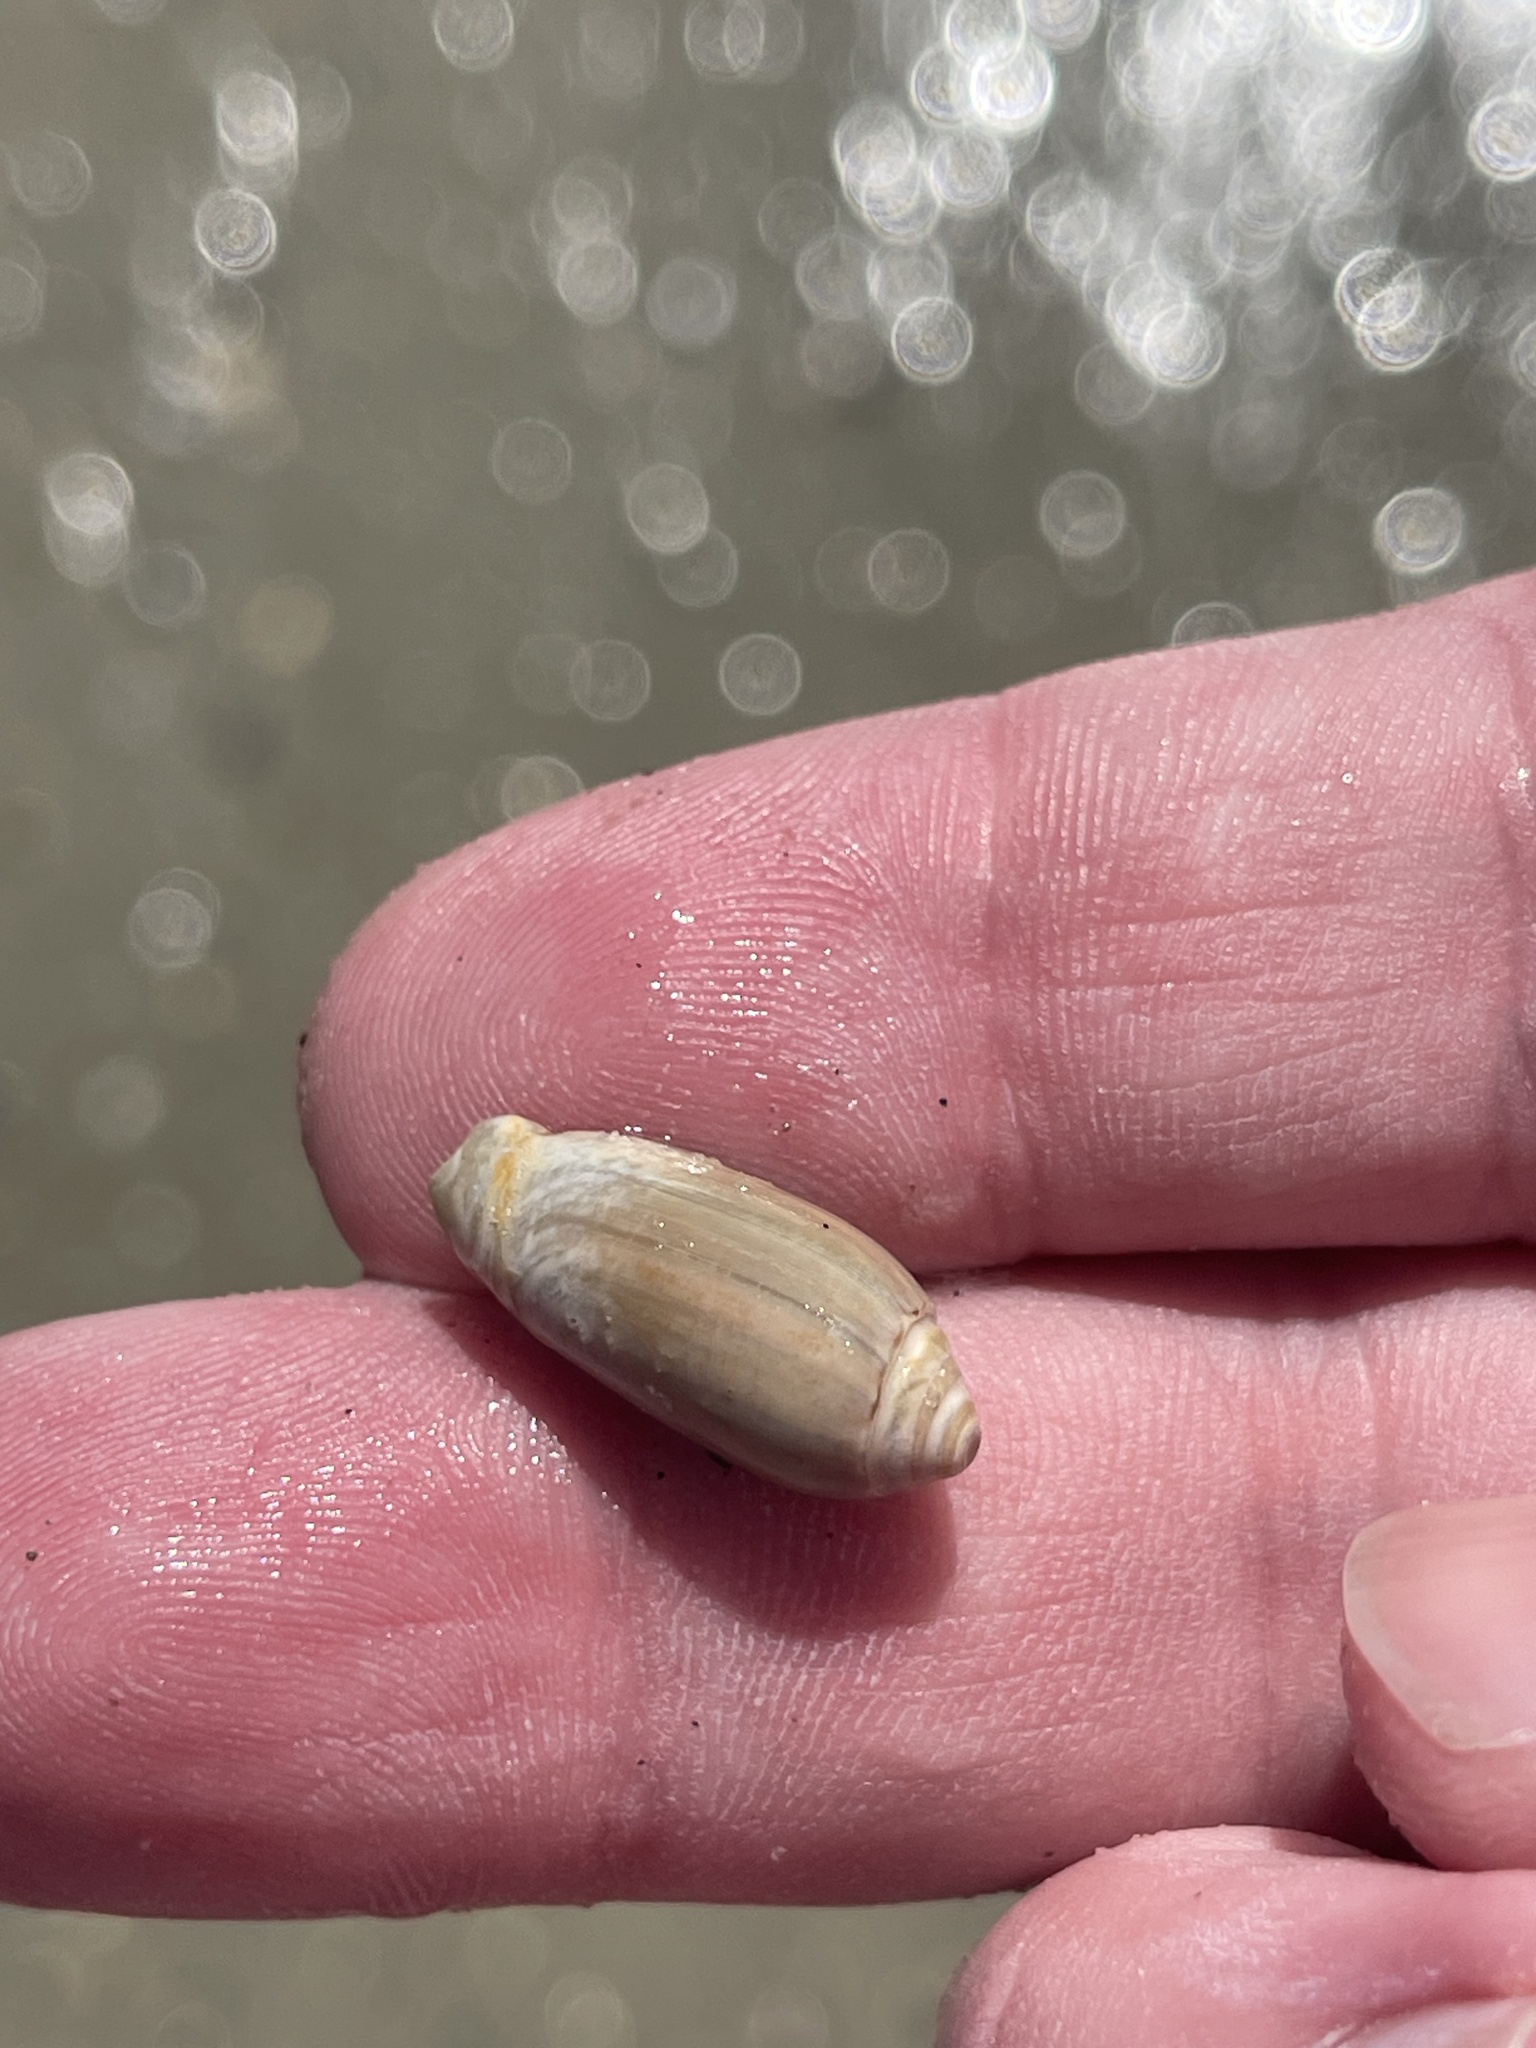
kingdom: Animalia
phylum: Mollusca
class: Gastropoda
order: Neogastropoda
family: Olividae
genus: Oliva
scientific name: Oliva sayana
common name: Lettered olive
